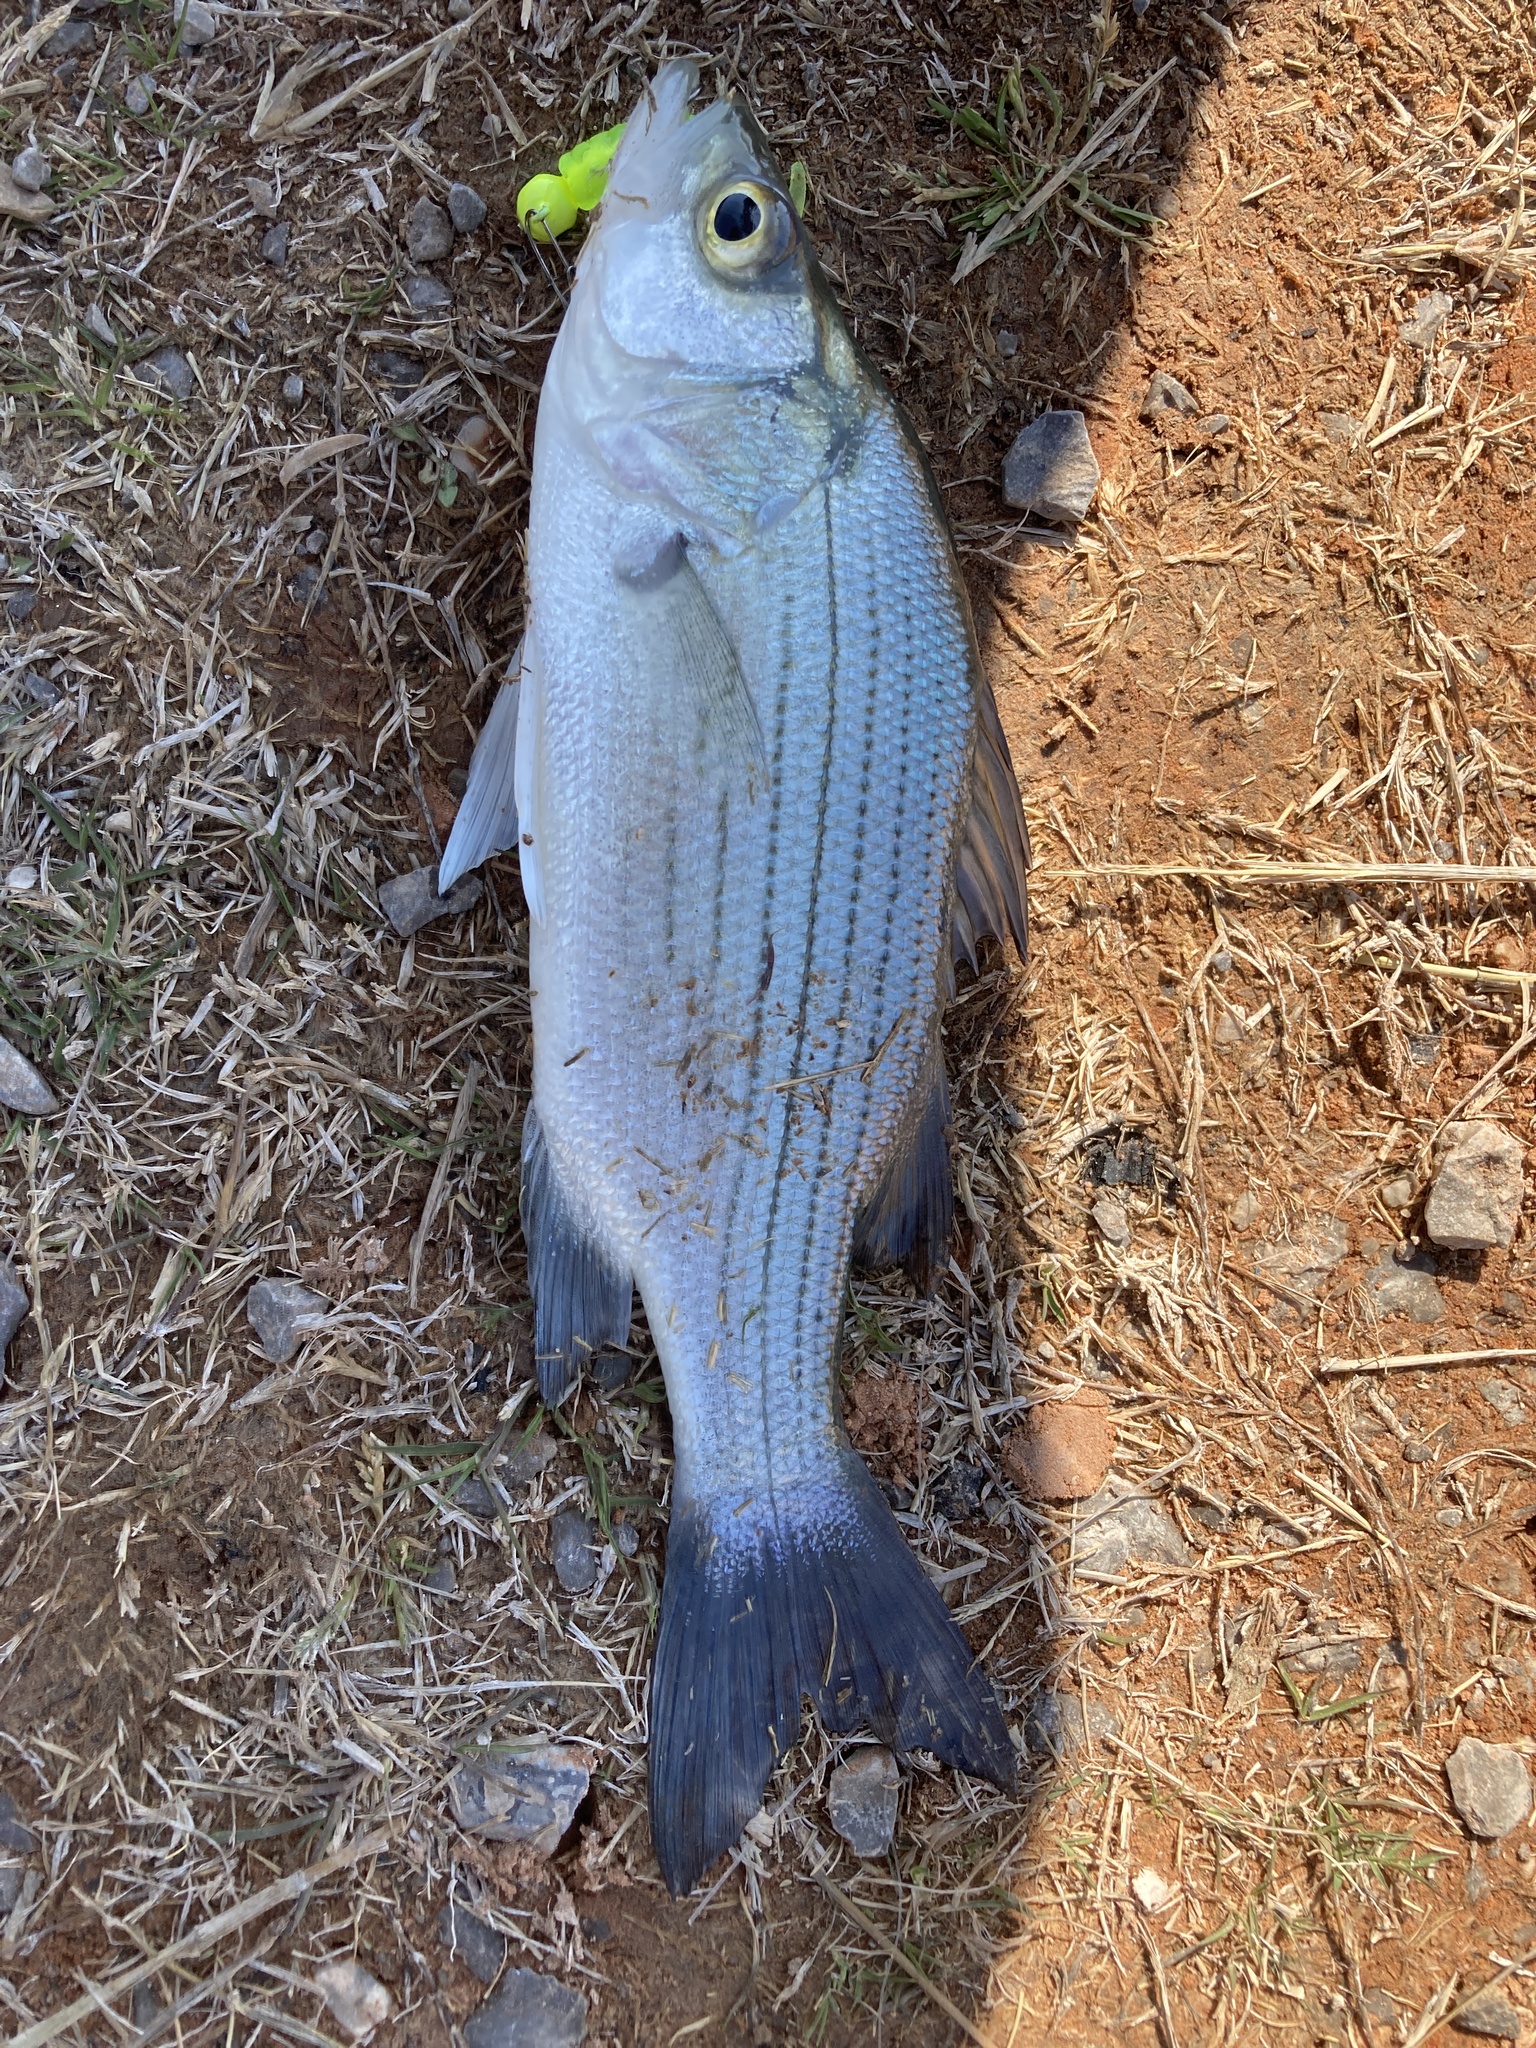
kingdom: Animalia
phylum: Chordata
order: Perciformes
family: Moronidae
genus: Morone
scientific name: Morone chrysops
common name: White bass
